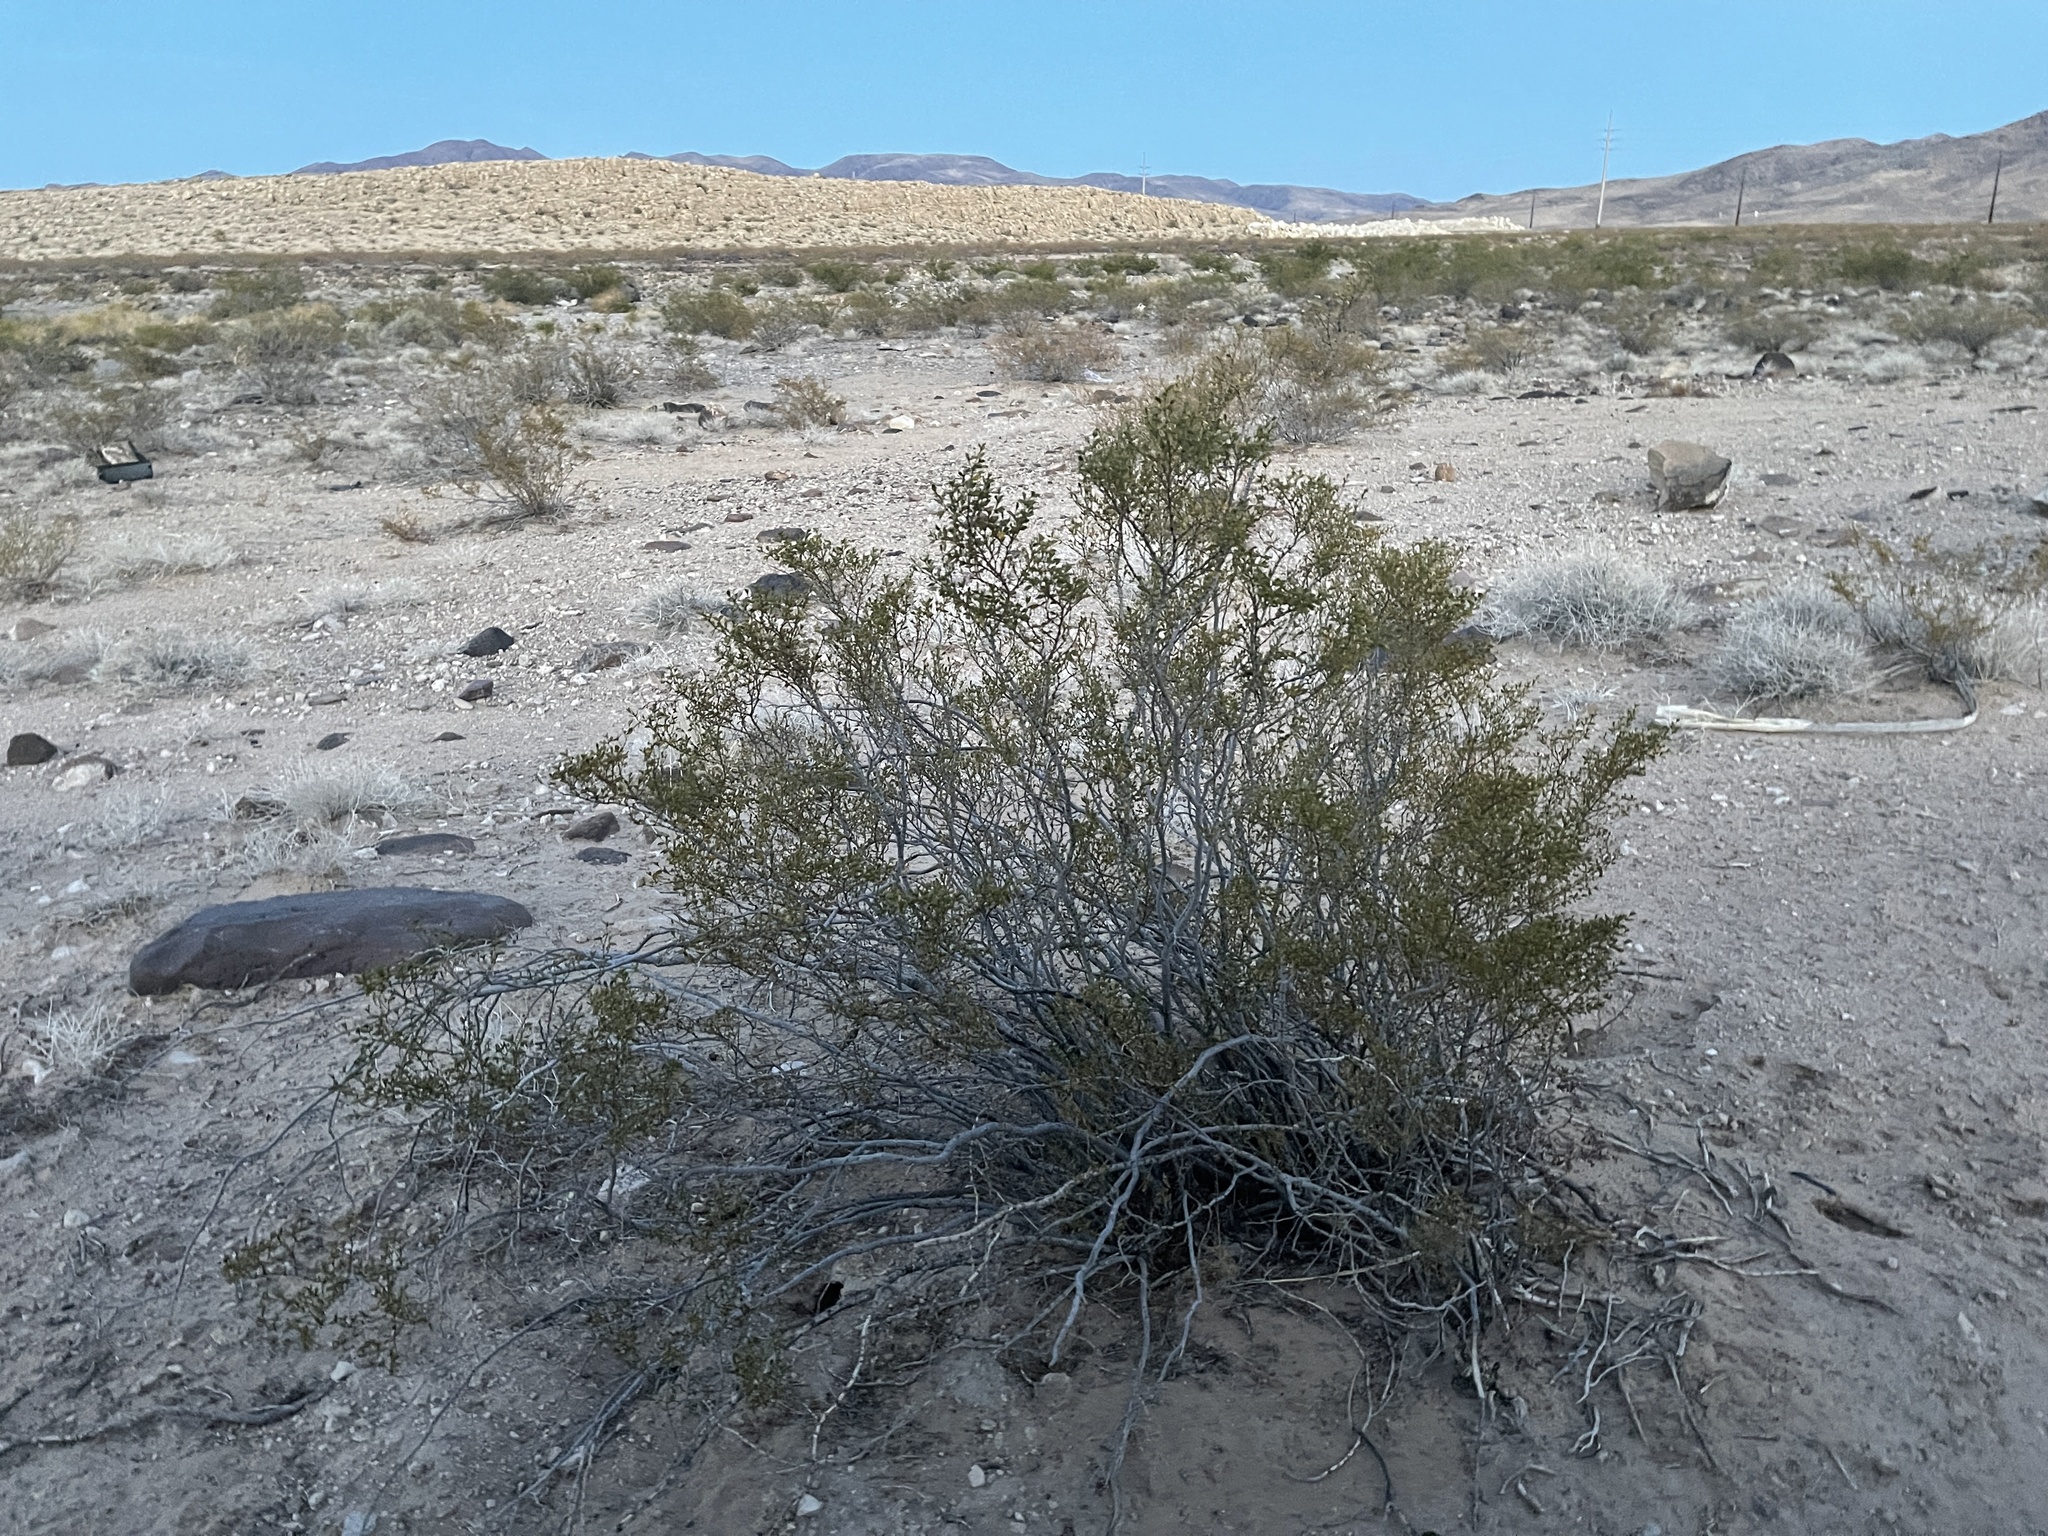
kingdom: Plantae
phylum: Tracheophyta
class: Magnoliopsida
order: Zygophyllales
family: Zygophyllaceae
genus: Larrea
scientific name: Larrea tridentata
